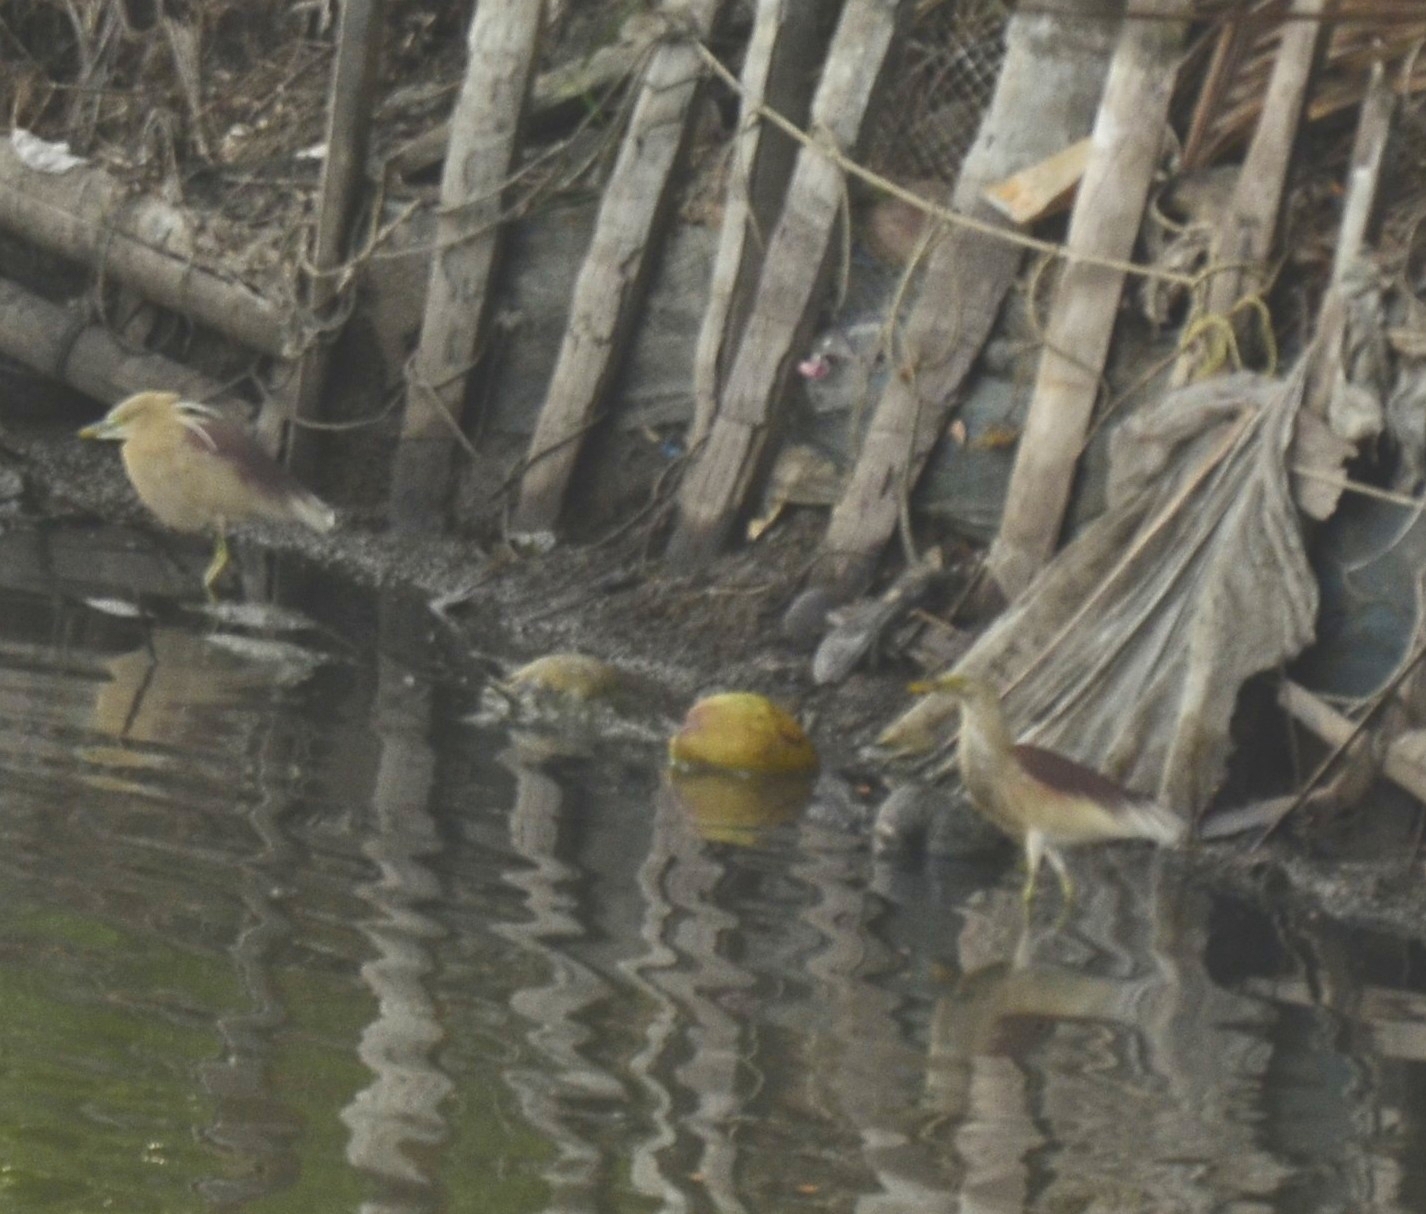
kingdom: Animalia
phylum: Chordata
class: Aves
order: Pelecaniformes
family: Ardeidae
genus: Ardeola
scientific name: Ardeola grayii
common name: Indian pond heron
